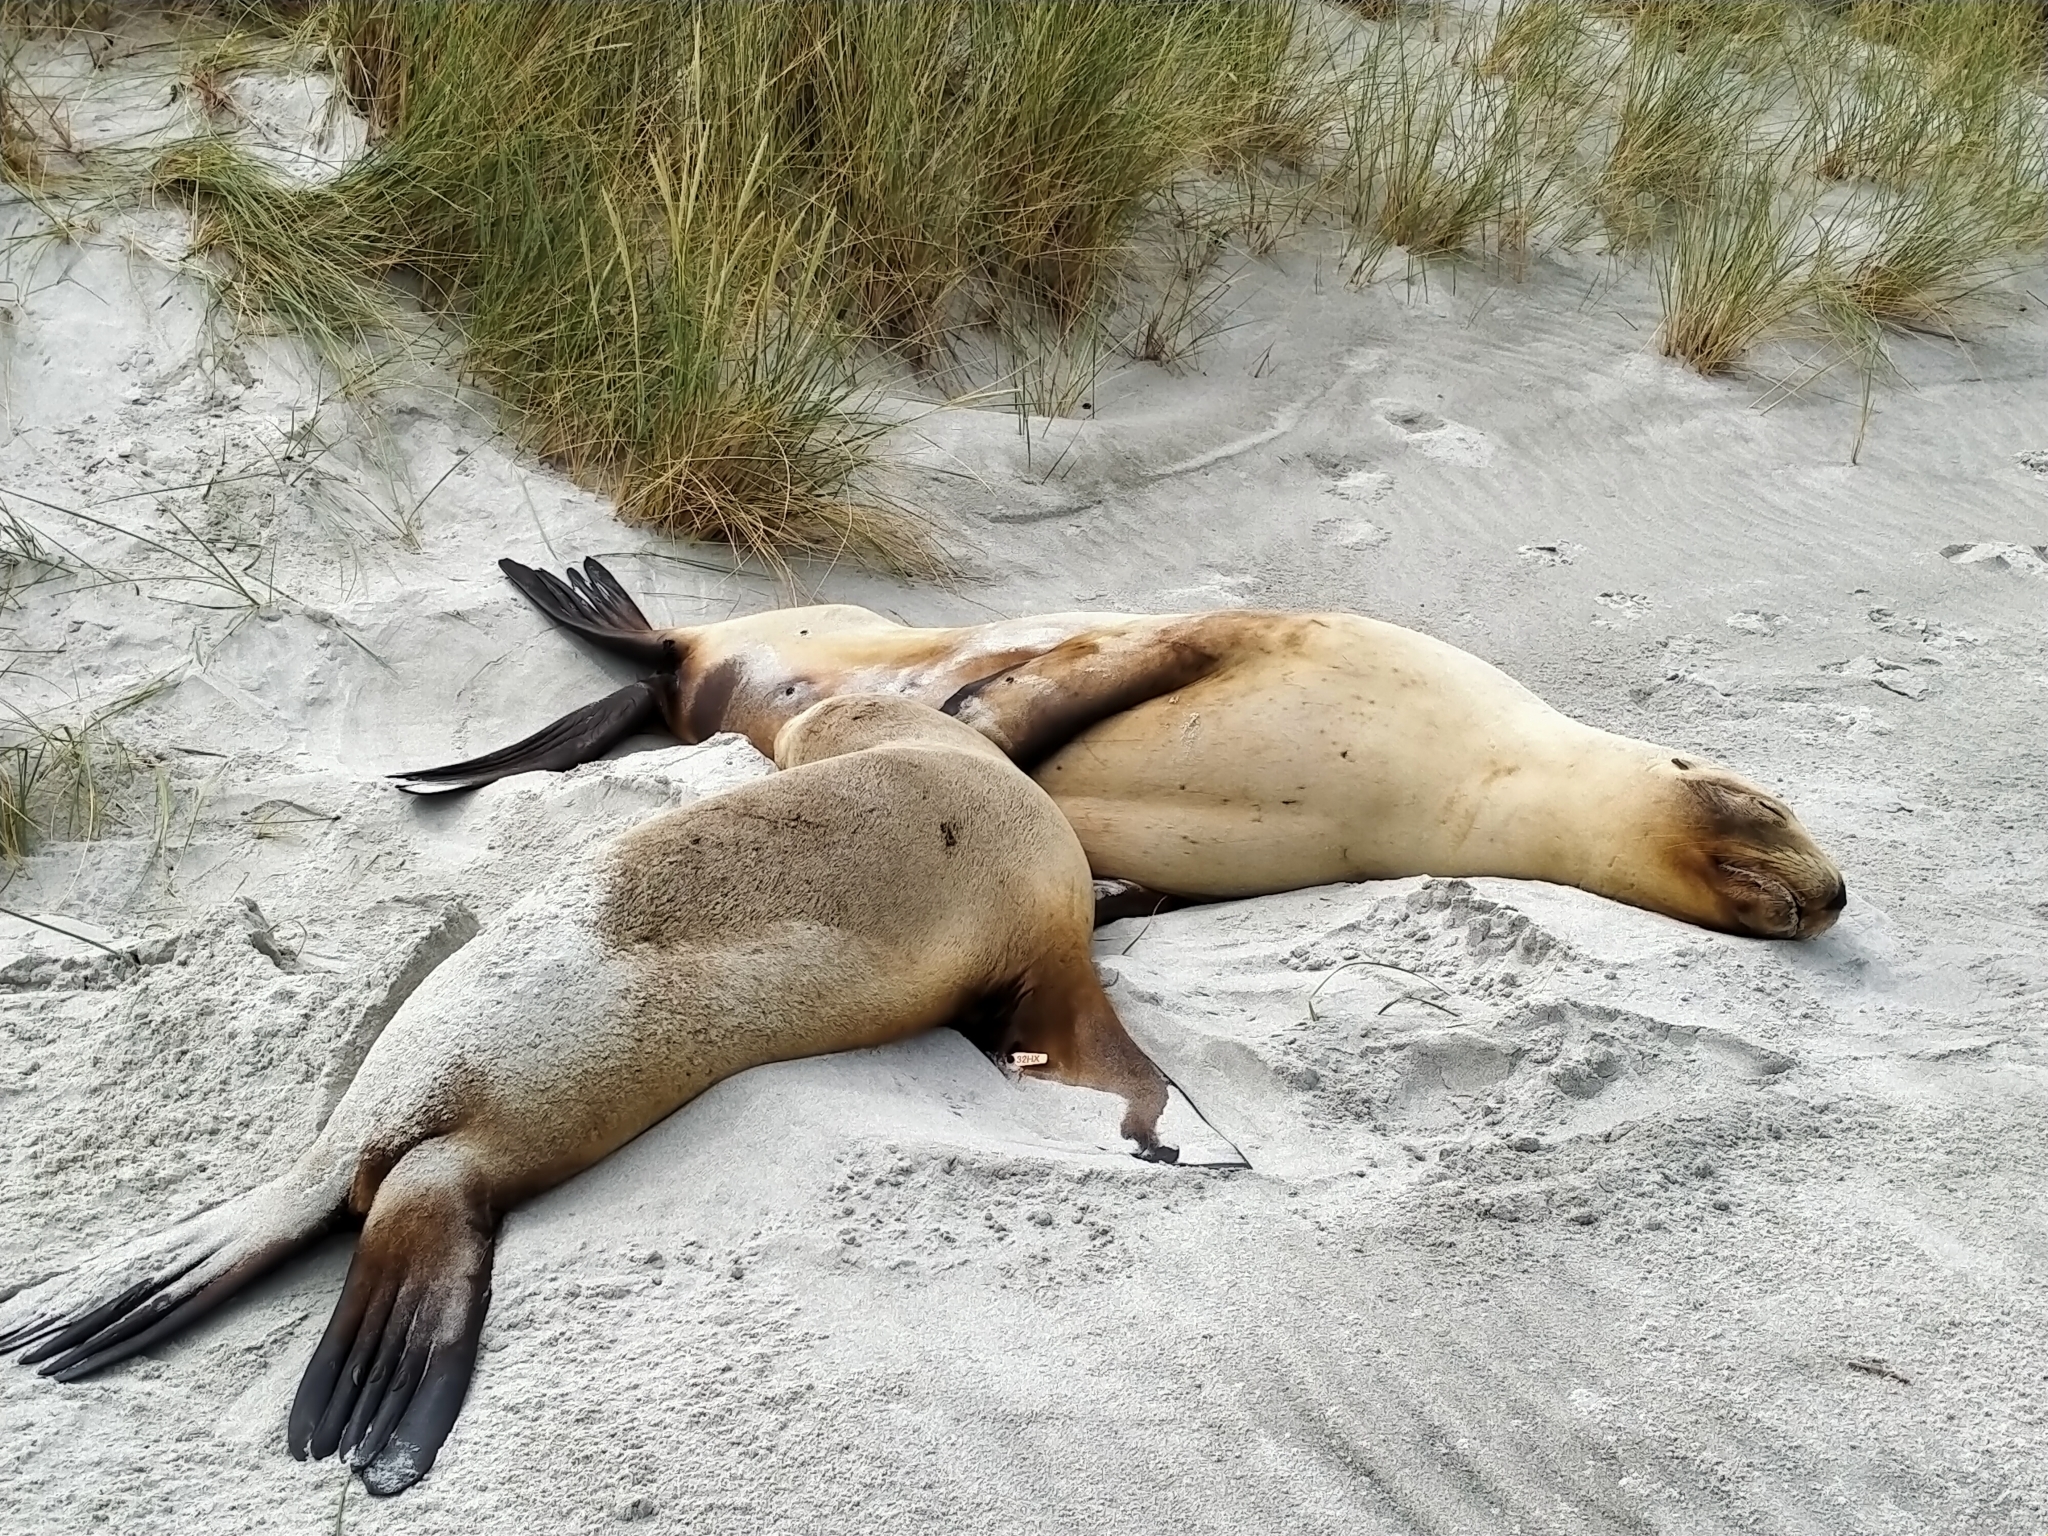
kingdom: Animalia
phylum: Chordata
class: Mammalia
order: Carnivora
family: Otariidae
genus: Phocarctos
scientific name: Phocarctos hookeri
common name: New zealand sea lion
